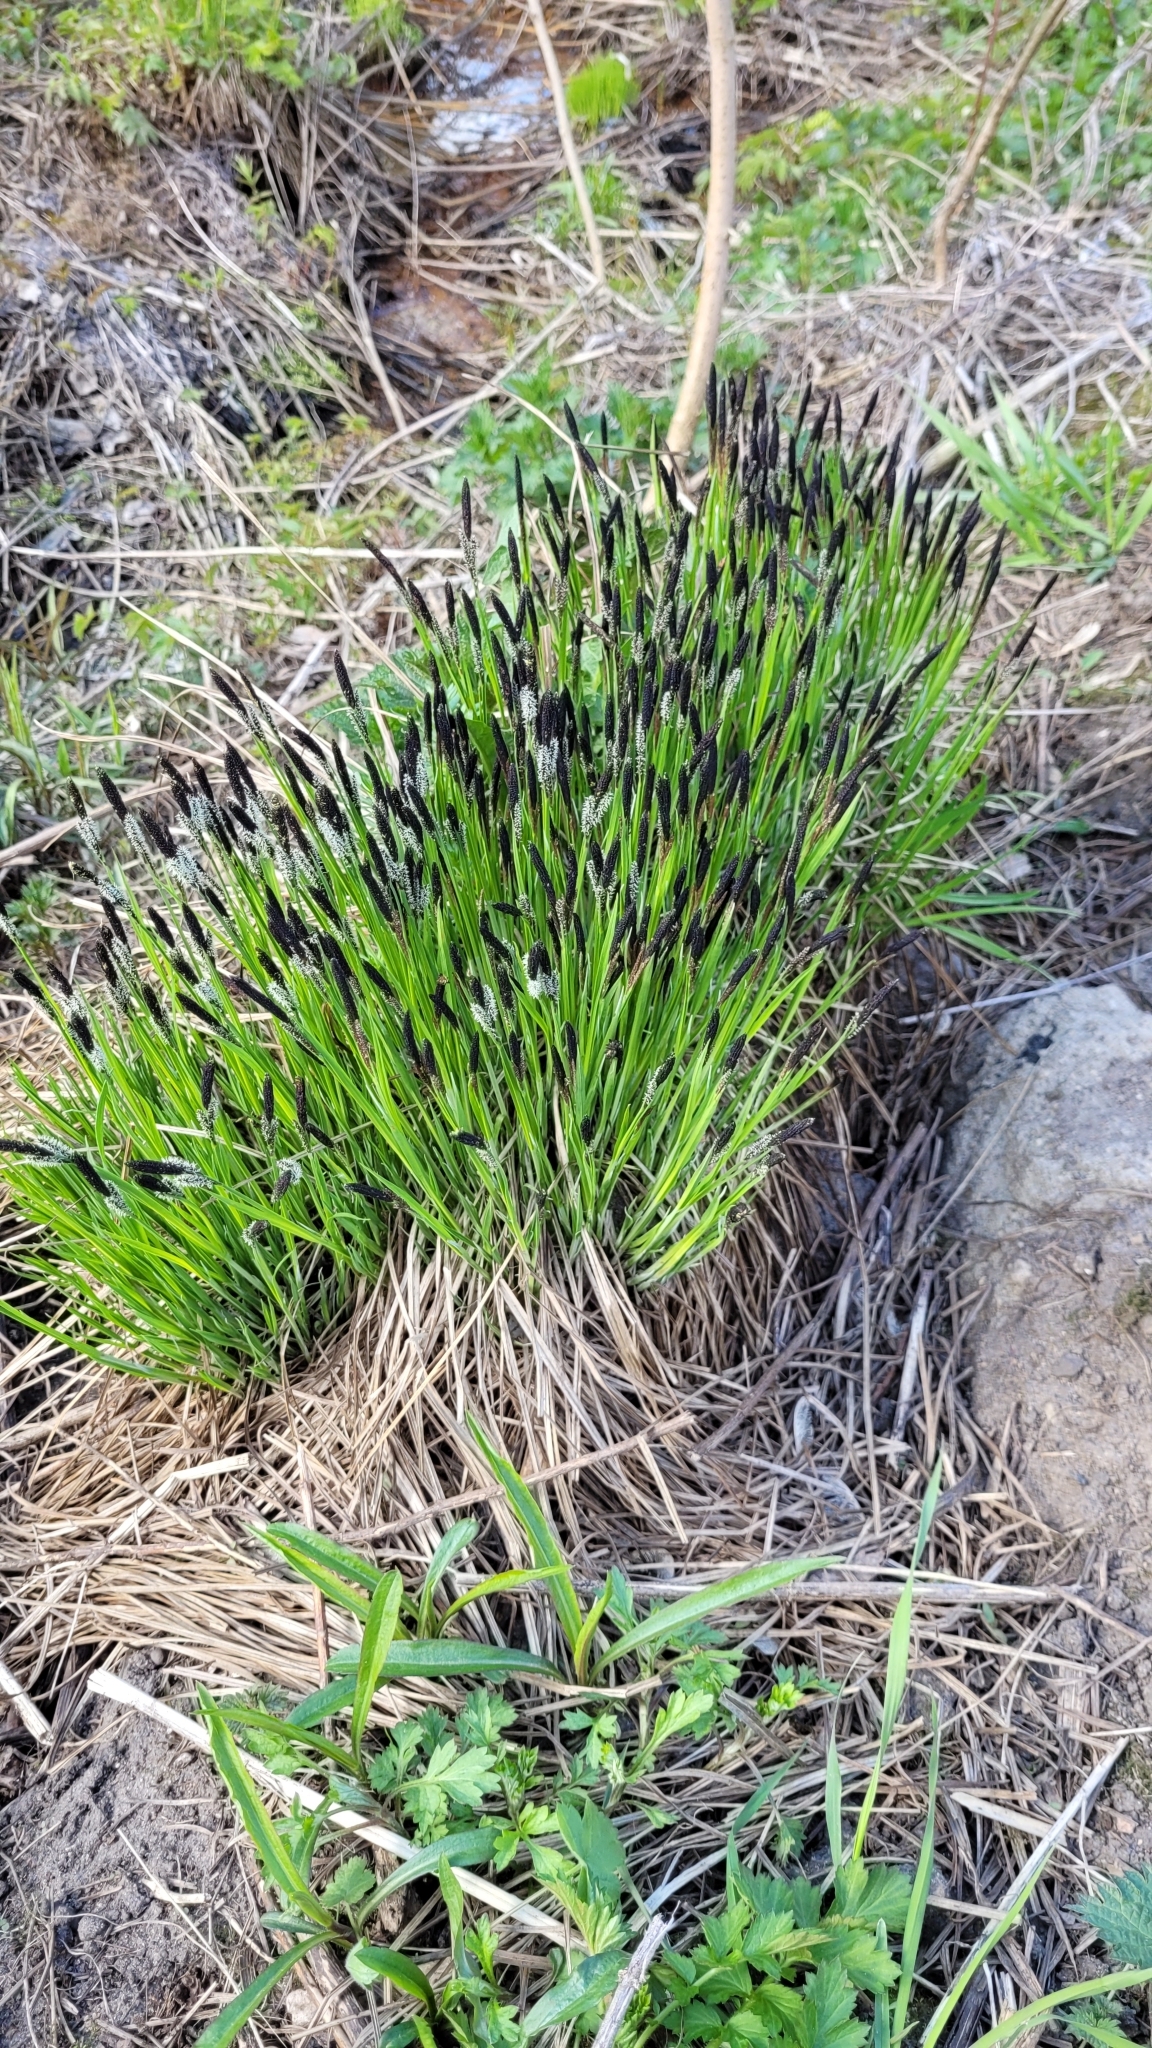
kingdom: Plantae
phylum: Tracheophyta
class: Liliopsida
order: Poales
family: Cyperaceae
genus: Carex
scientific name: Carex cespitosa
